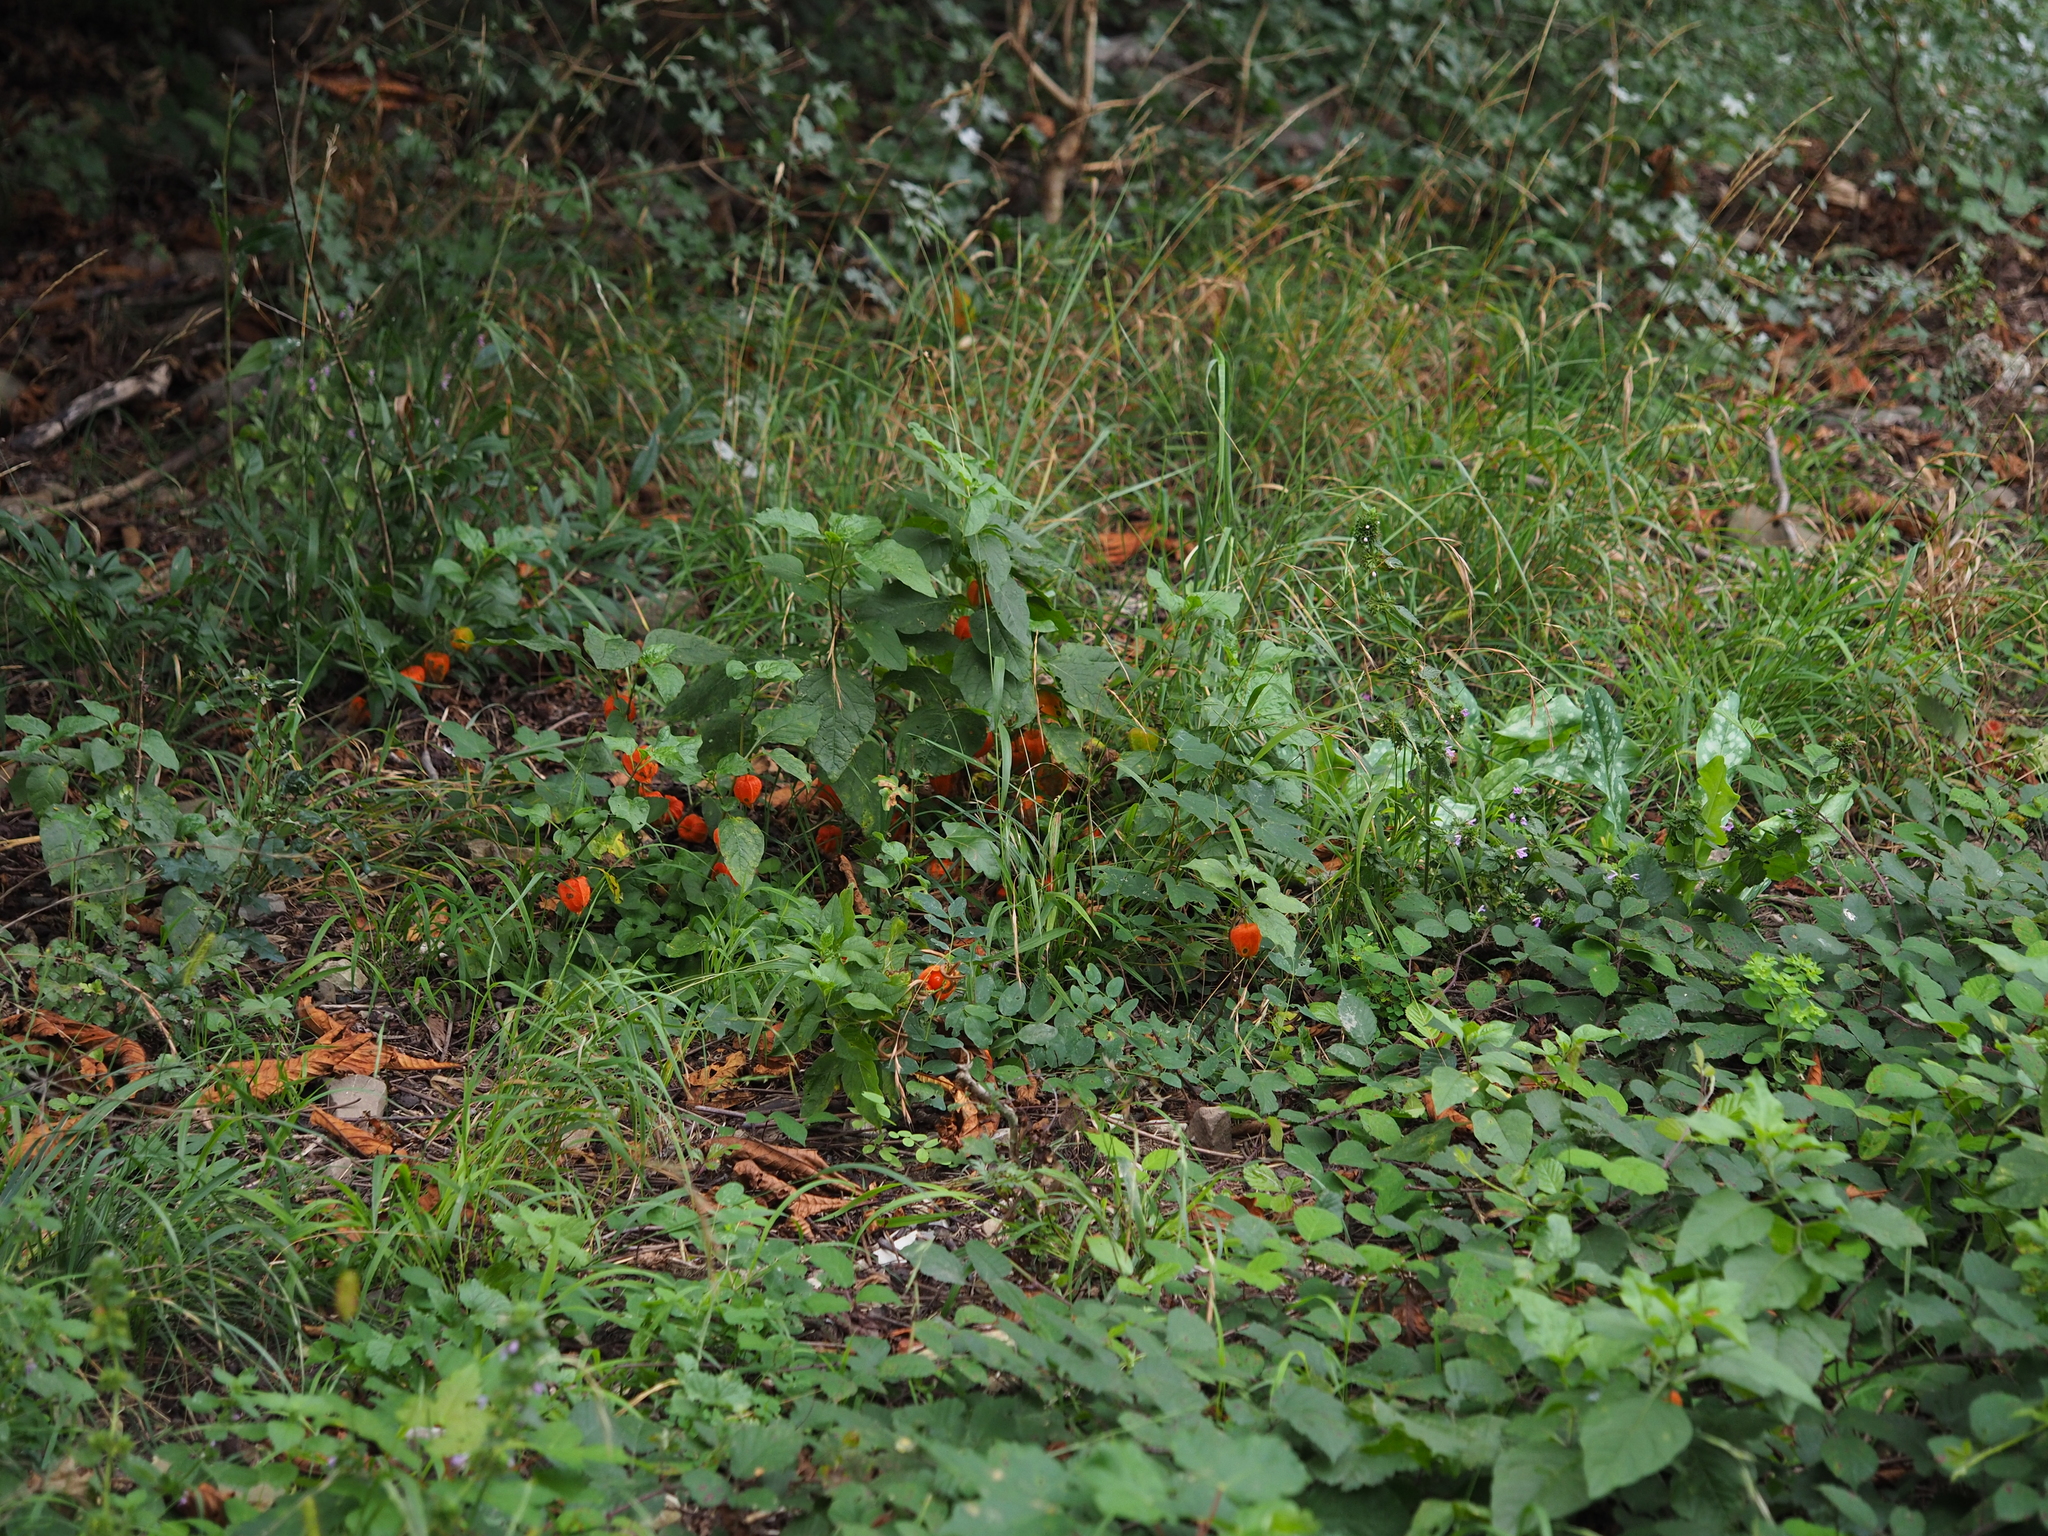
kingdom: Plantae
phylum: Tracheophyta
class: Magnoliopsida
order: Solanales
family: Solanaceae
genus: Alkekengi
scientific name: Alkekengi officinarum
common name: Japanese-lantern
